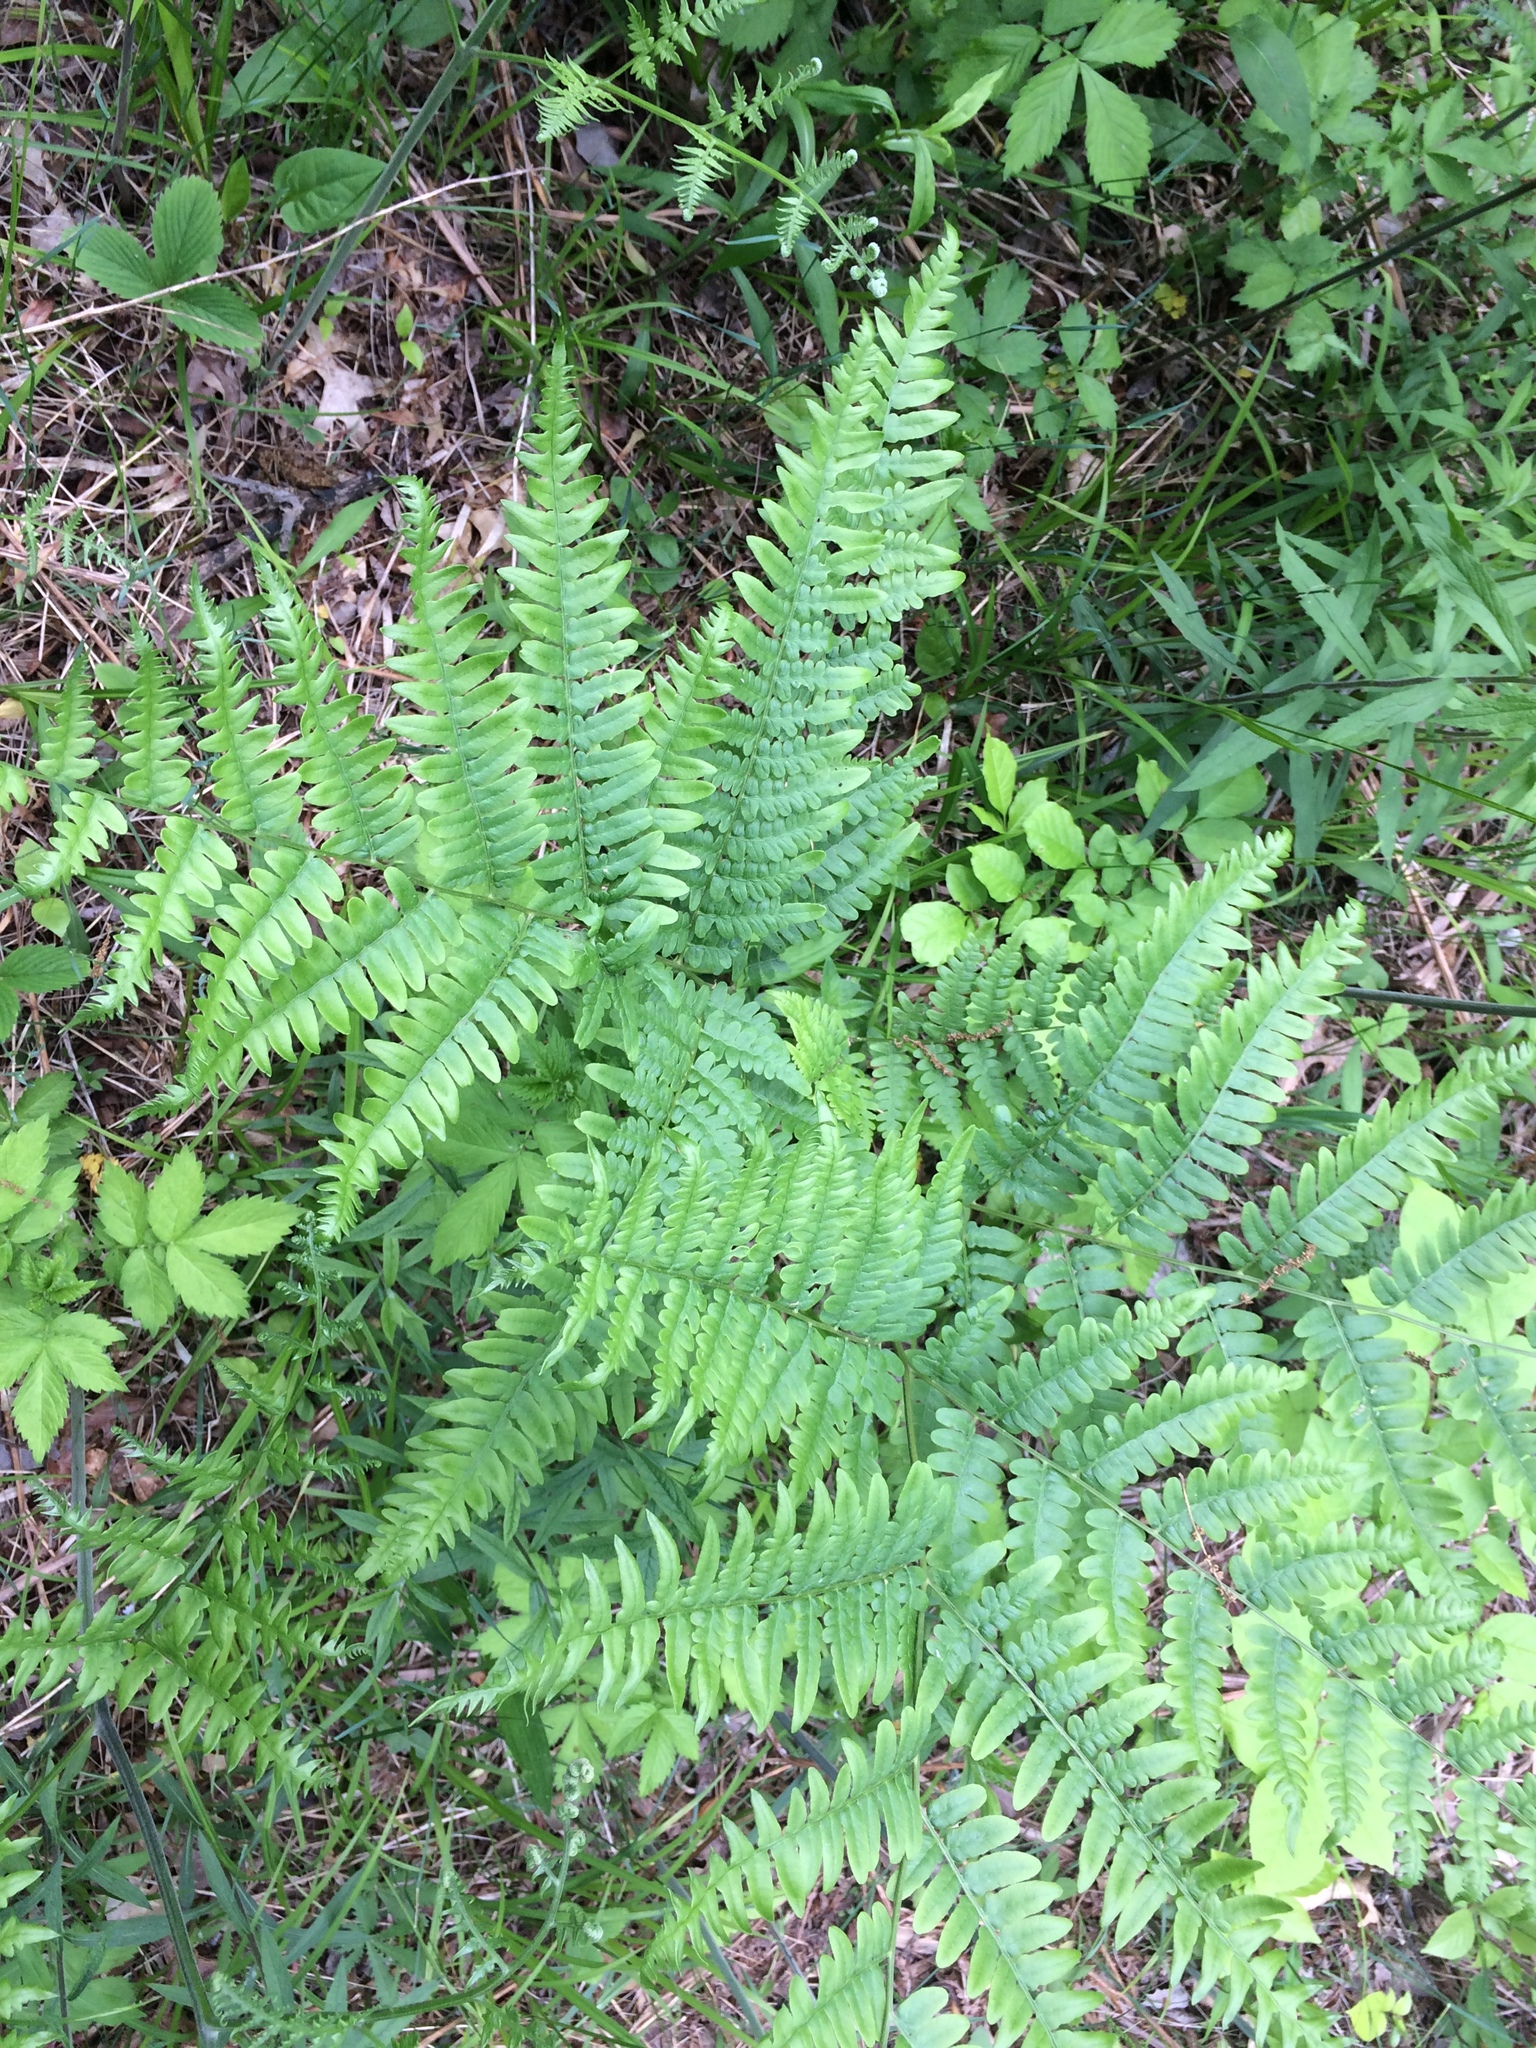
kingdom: Plantae
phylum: Tracheophyta
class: Polypodiopsida
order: Polypodiales
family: Dennstaedtiaceae
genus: Pteridium
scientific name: Pteridium aquilinum
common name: Bracken
